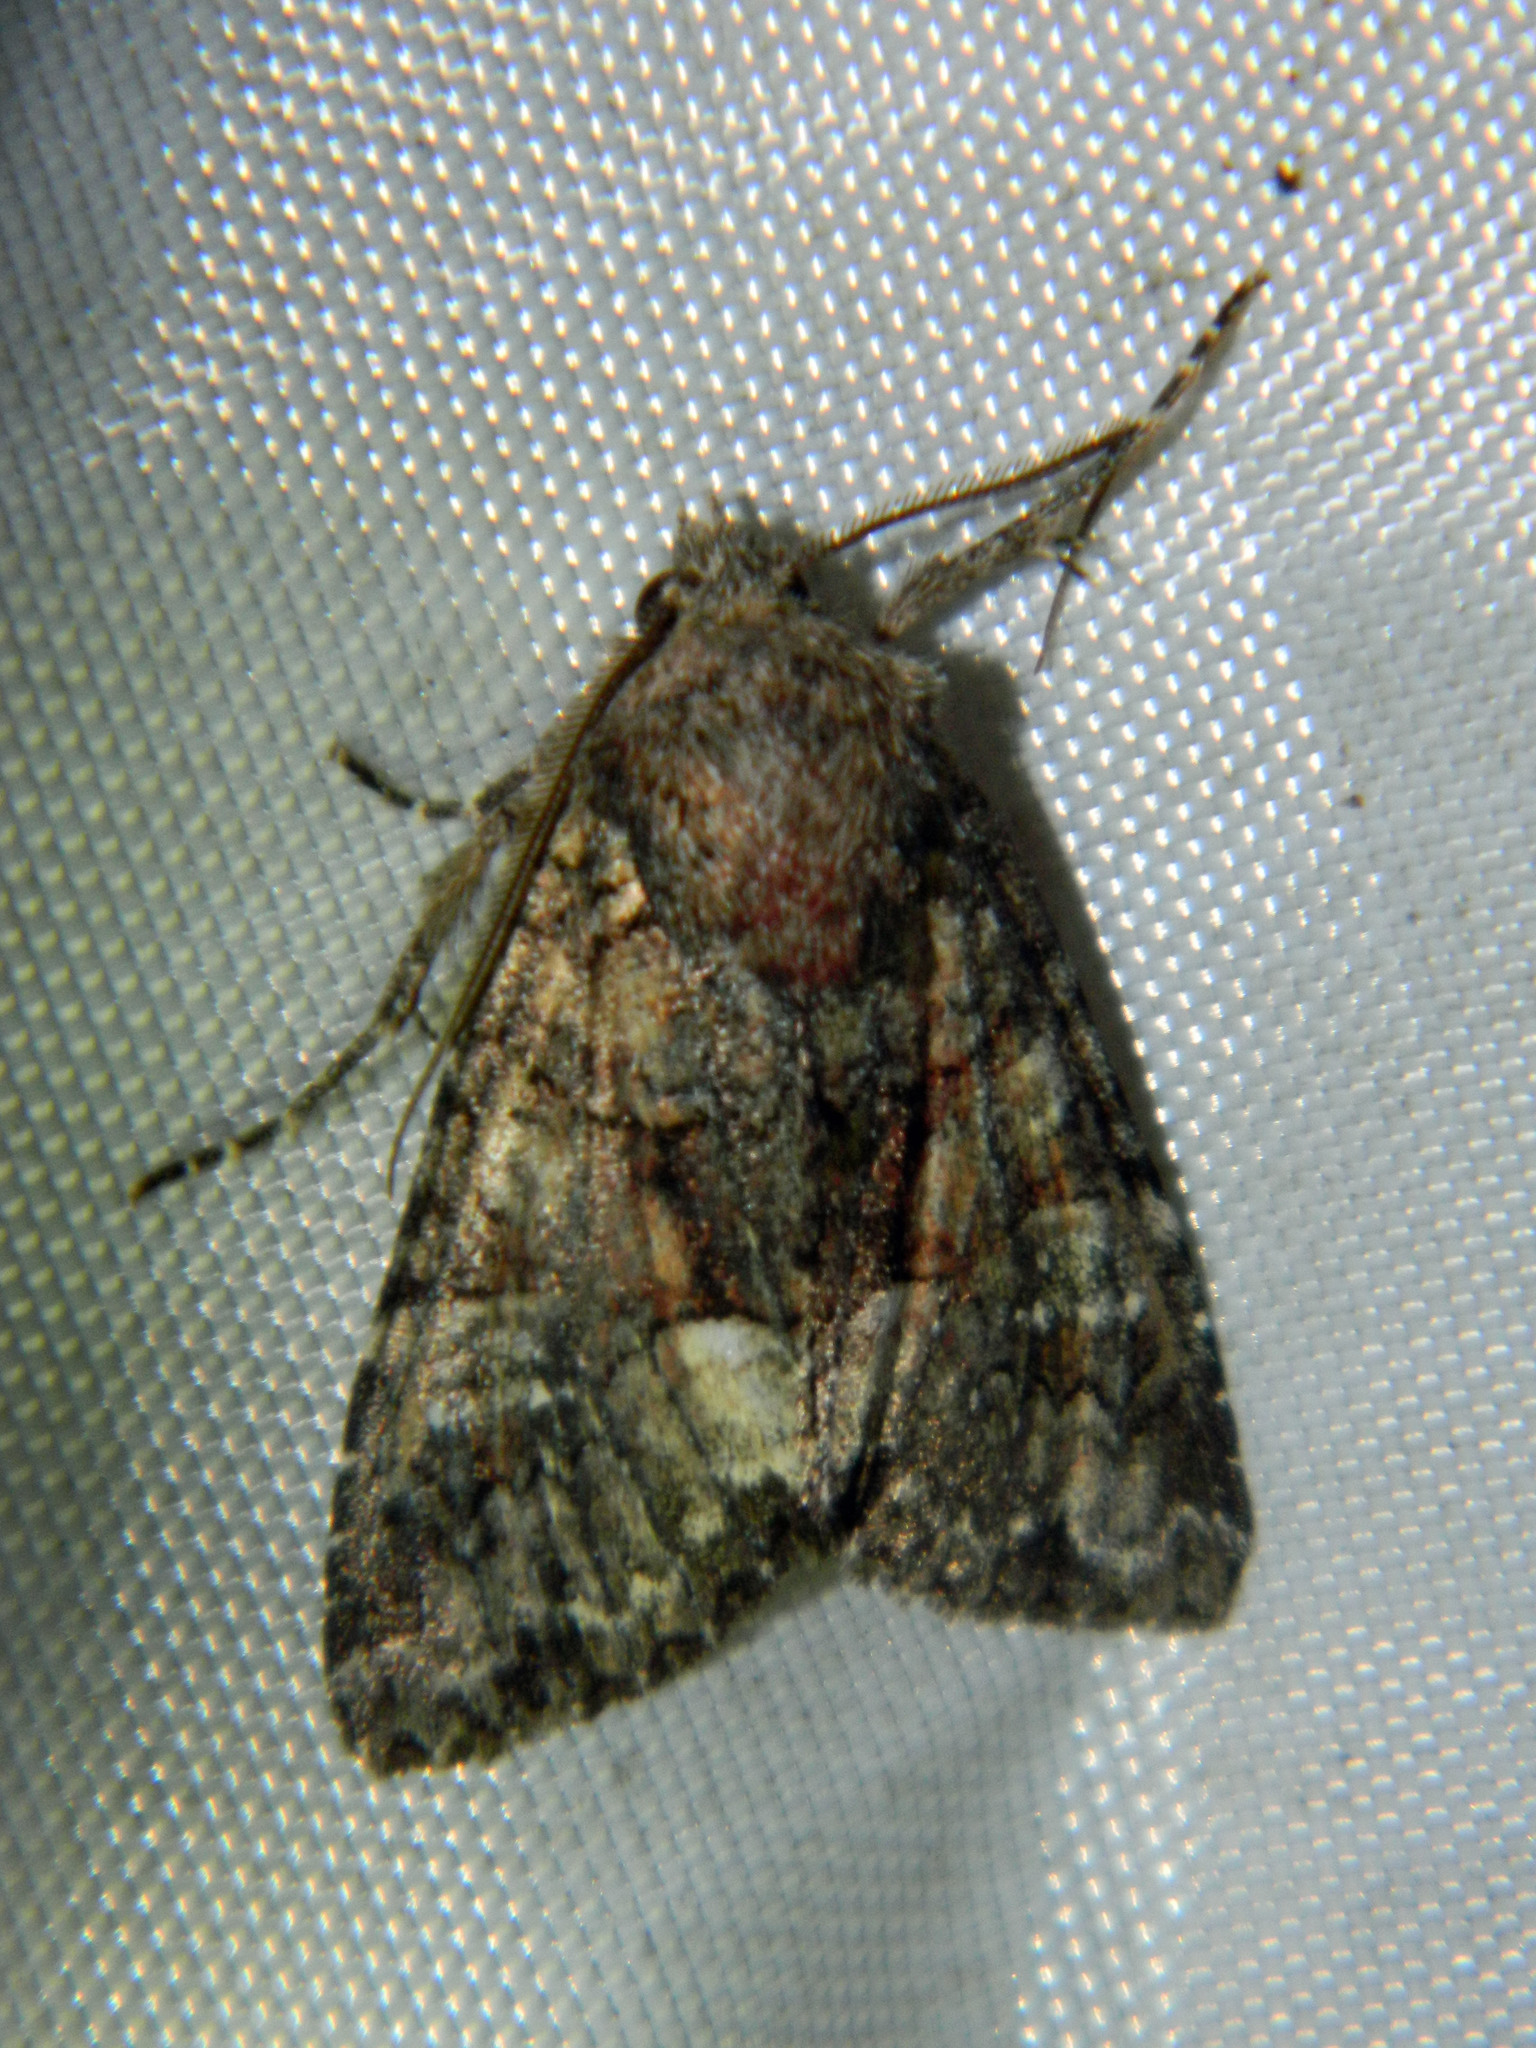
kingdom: Animalia
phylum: Arthropoda
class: Insecta
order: Lepidoptera
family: Noctuidae
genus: Fishia
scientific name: Fishia illocata
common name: Wandering brocade moth
